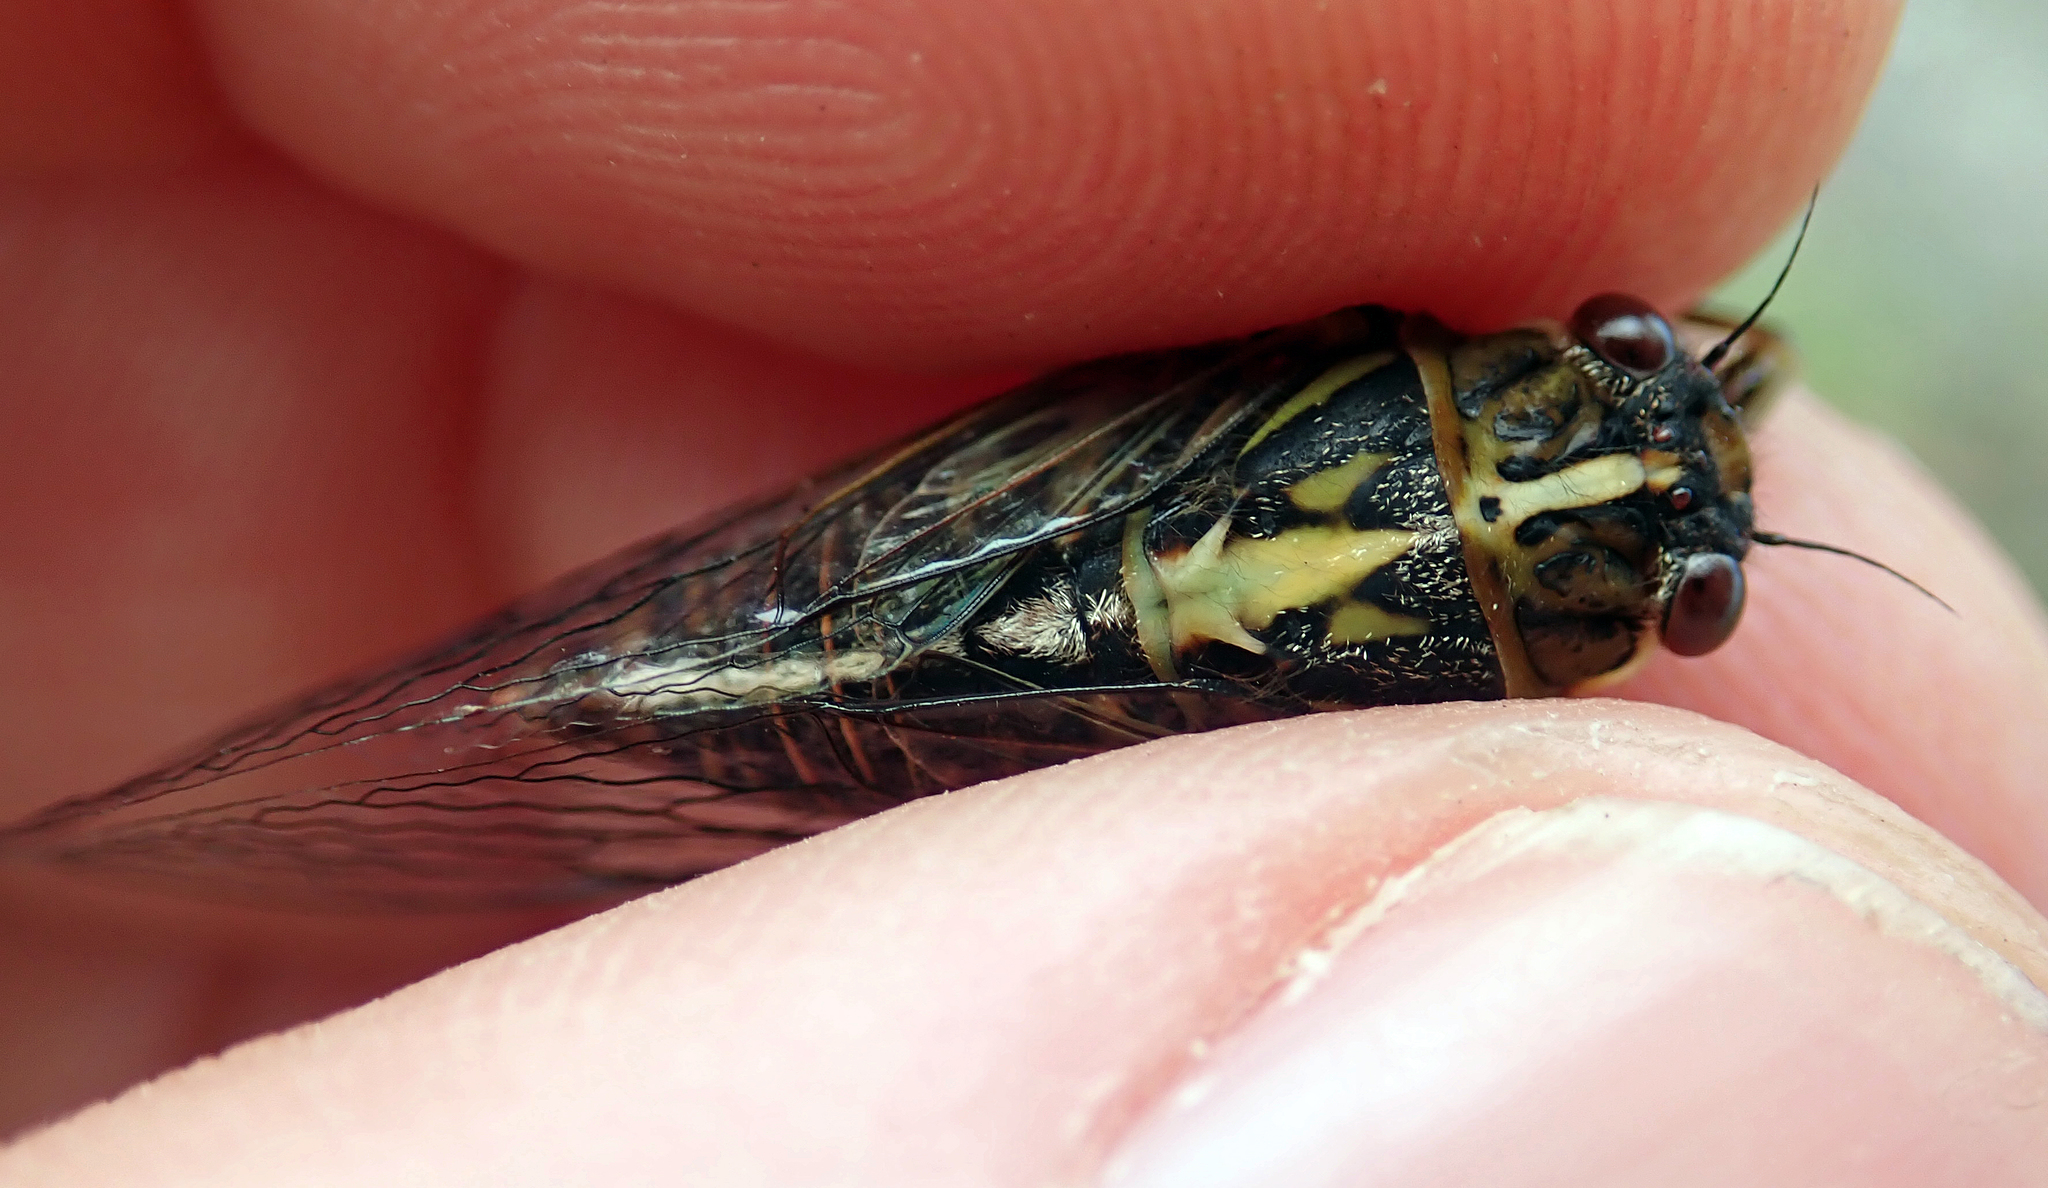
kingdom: Animalia
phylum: Arthropoda
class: Insecta
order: Hemiptera
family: Cicadidae
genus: Kikihia
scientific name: Kikihia longula
